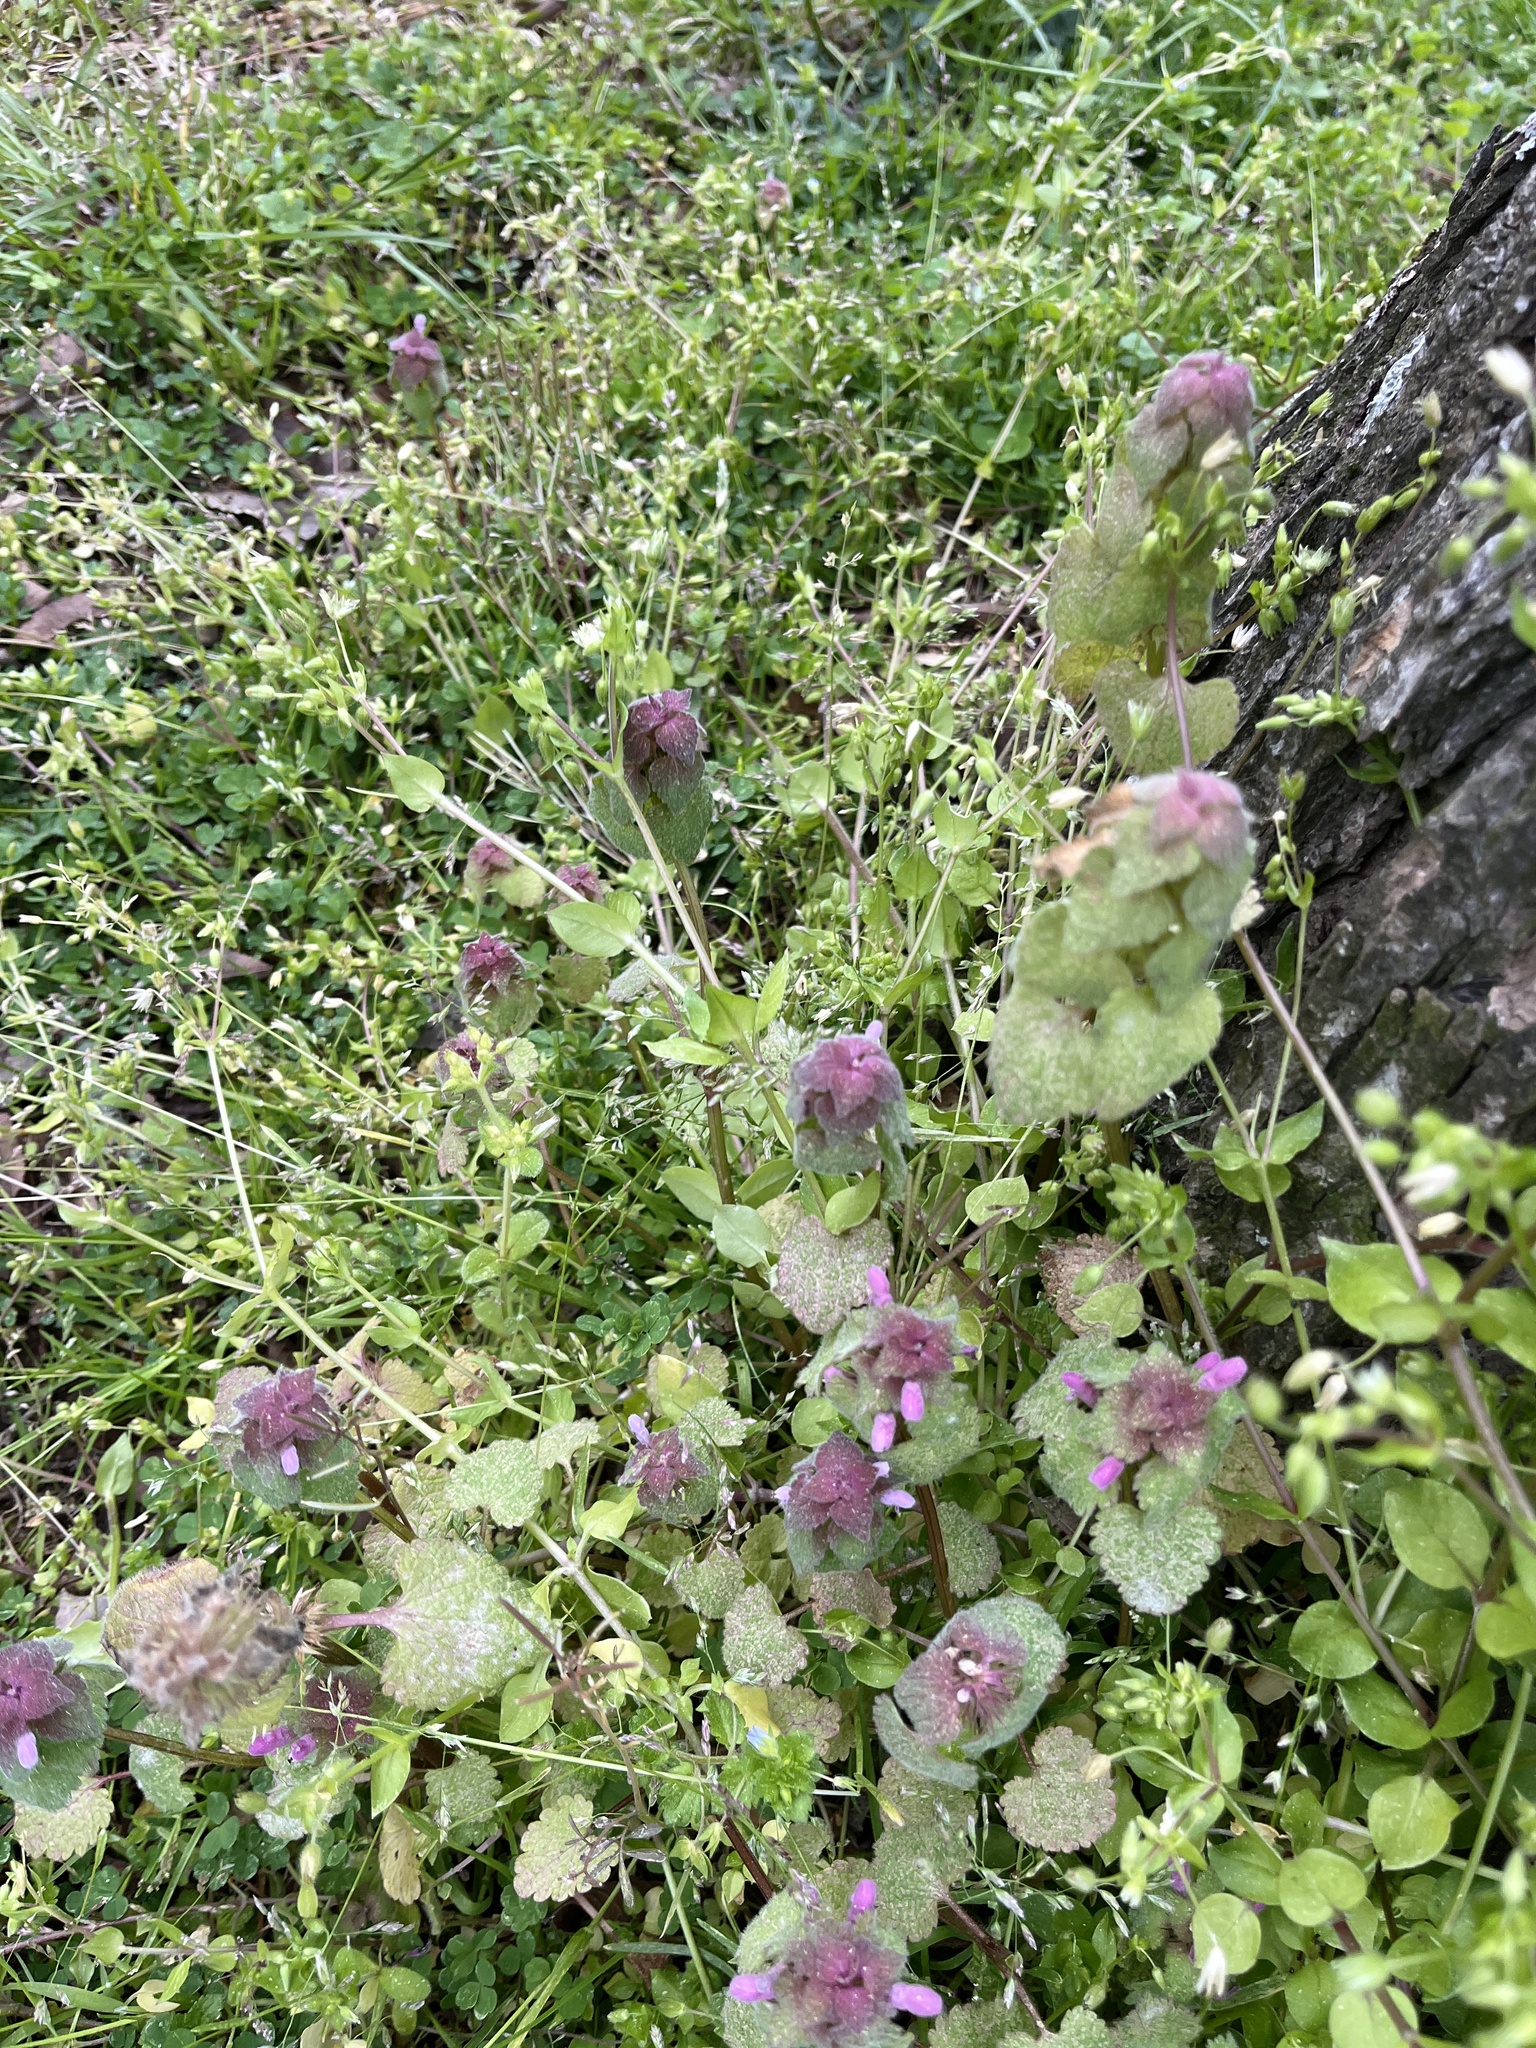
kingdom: Plantae
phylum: Tracheophyta
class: Magnoliopsida
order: Lamiales
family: Lamiaceae
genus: Lamium
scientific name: Lamium purpureum
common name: Red dead-nettle
